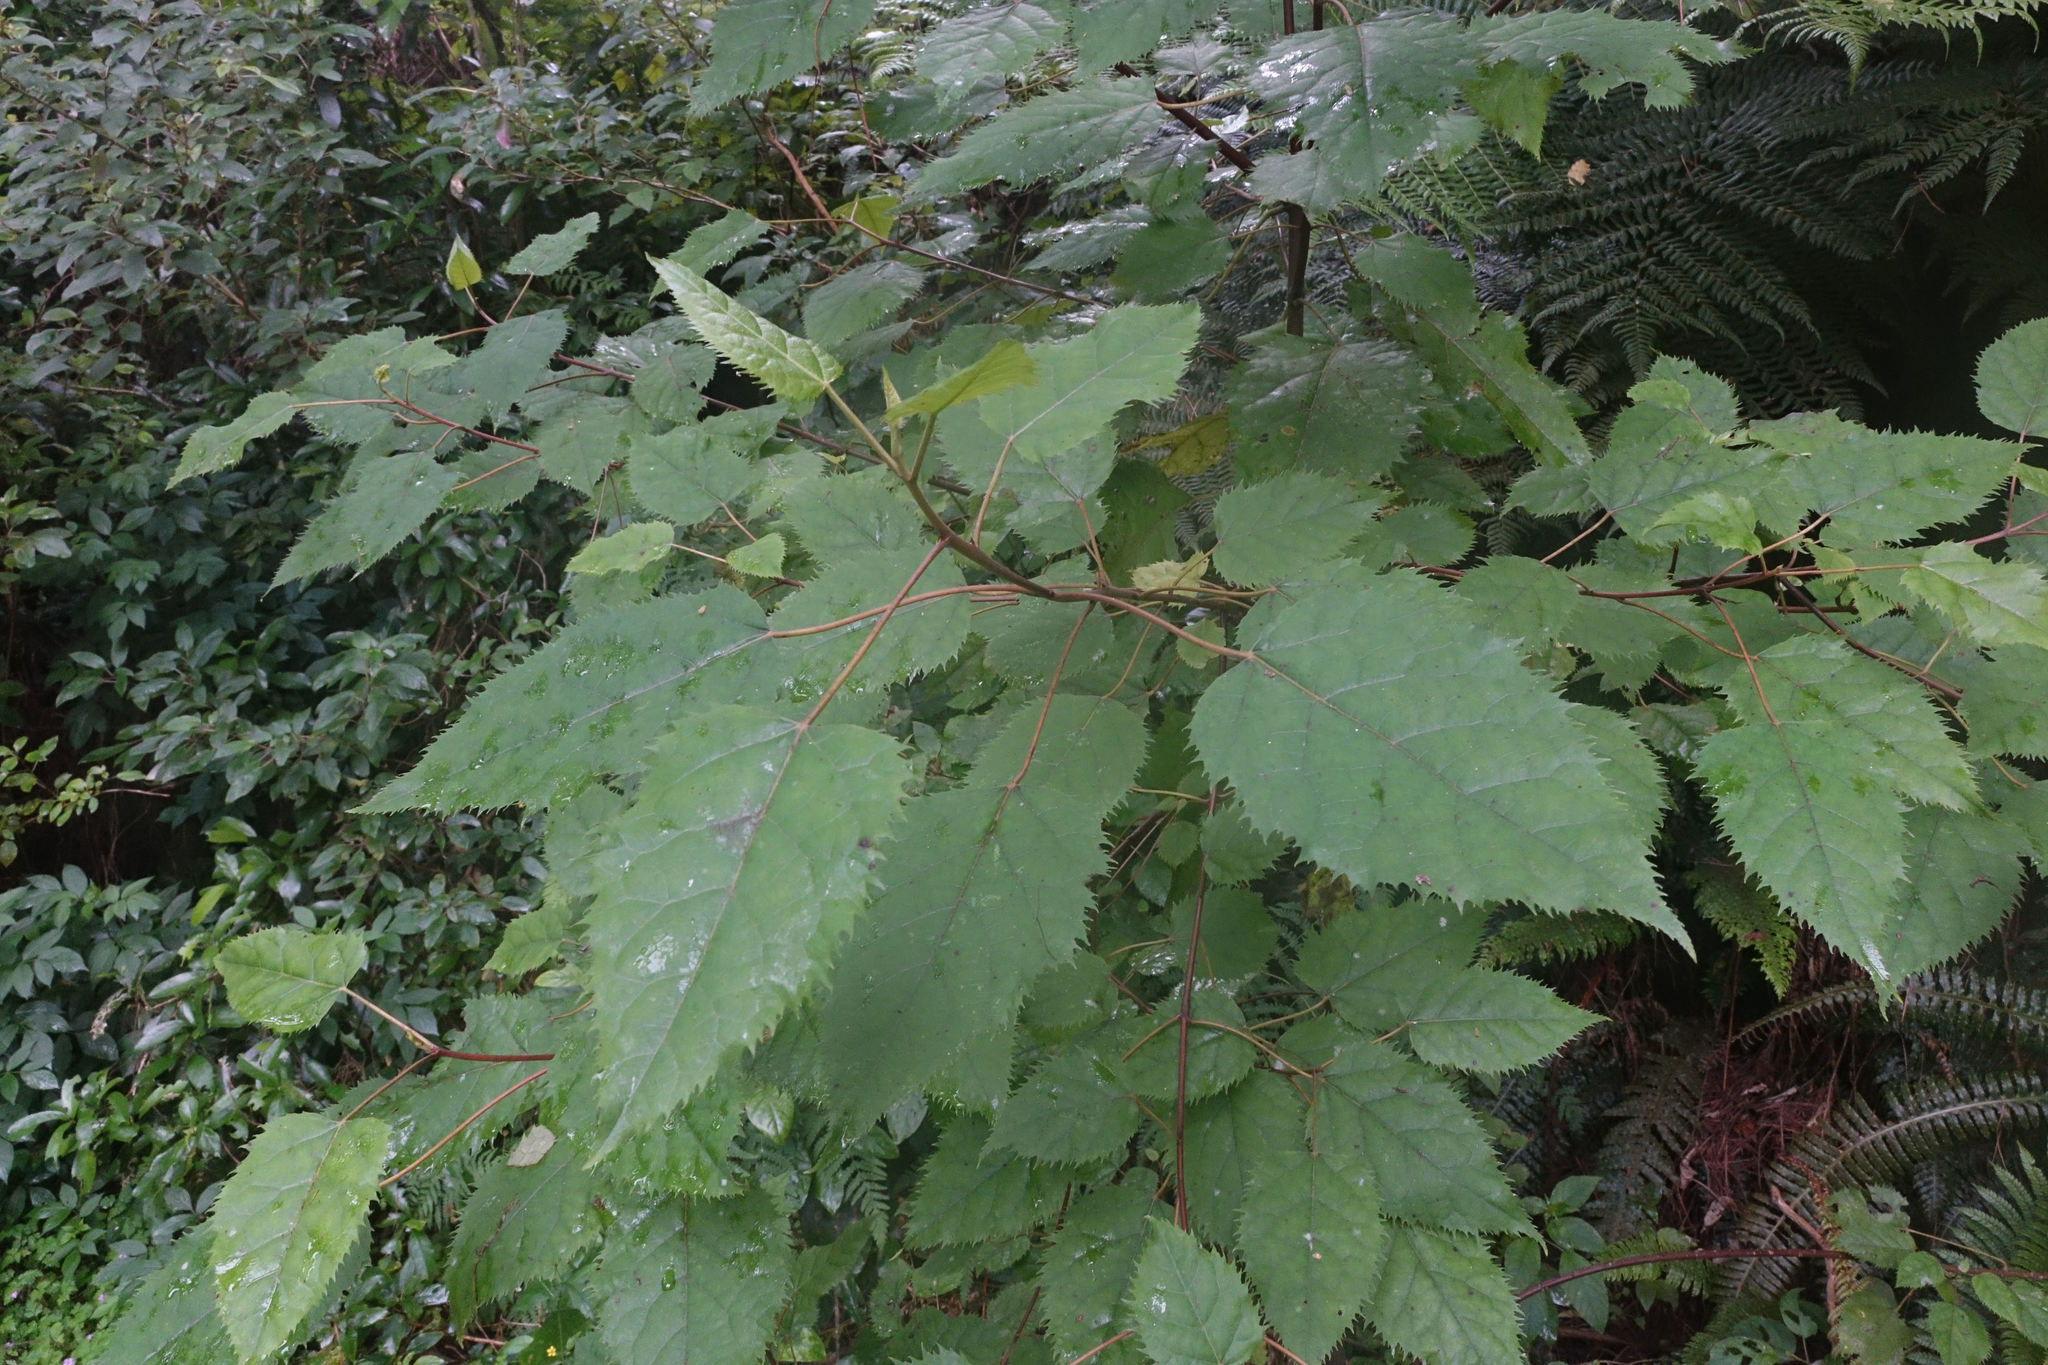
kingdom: Plantae
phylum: Tracheophyta
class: Magnoliopsida
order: Oxalidales
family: Elaeocarpaceae
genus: Aristotelia
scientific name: Aristotelia serrata
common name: New zealand wineberry
